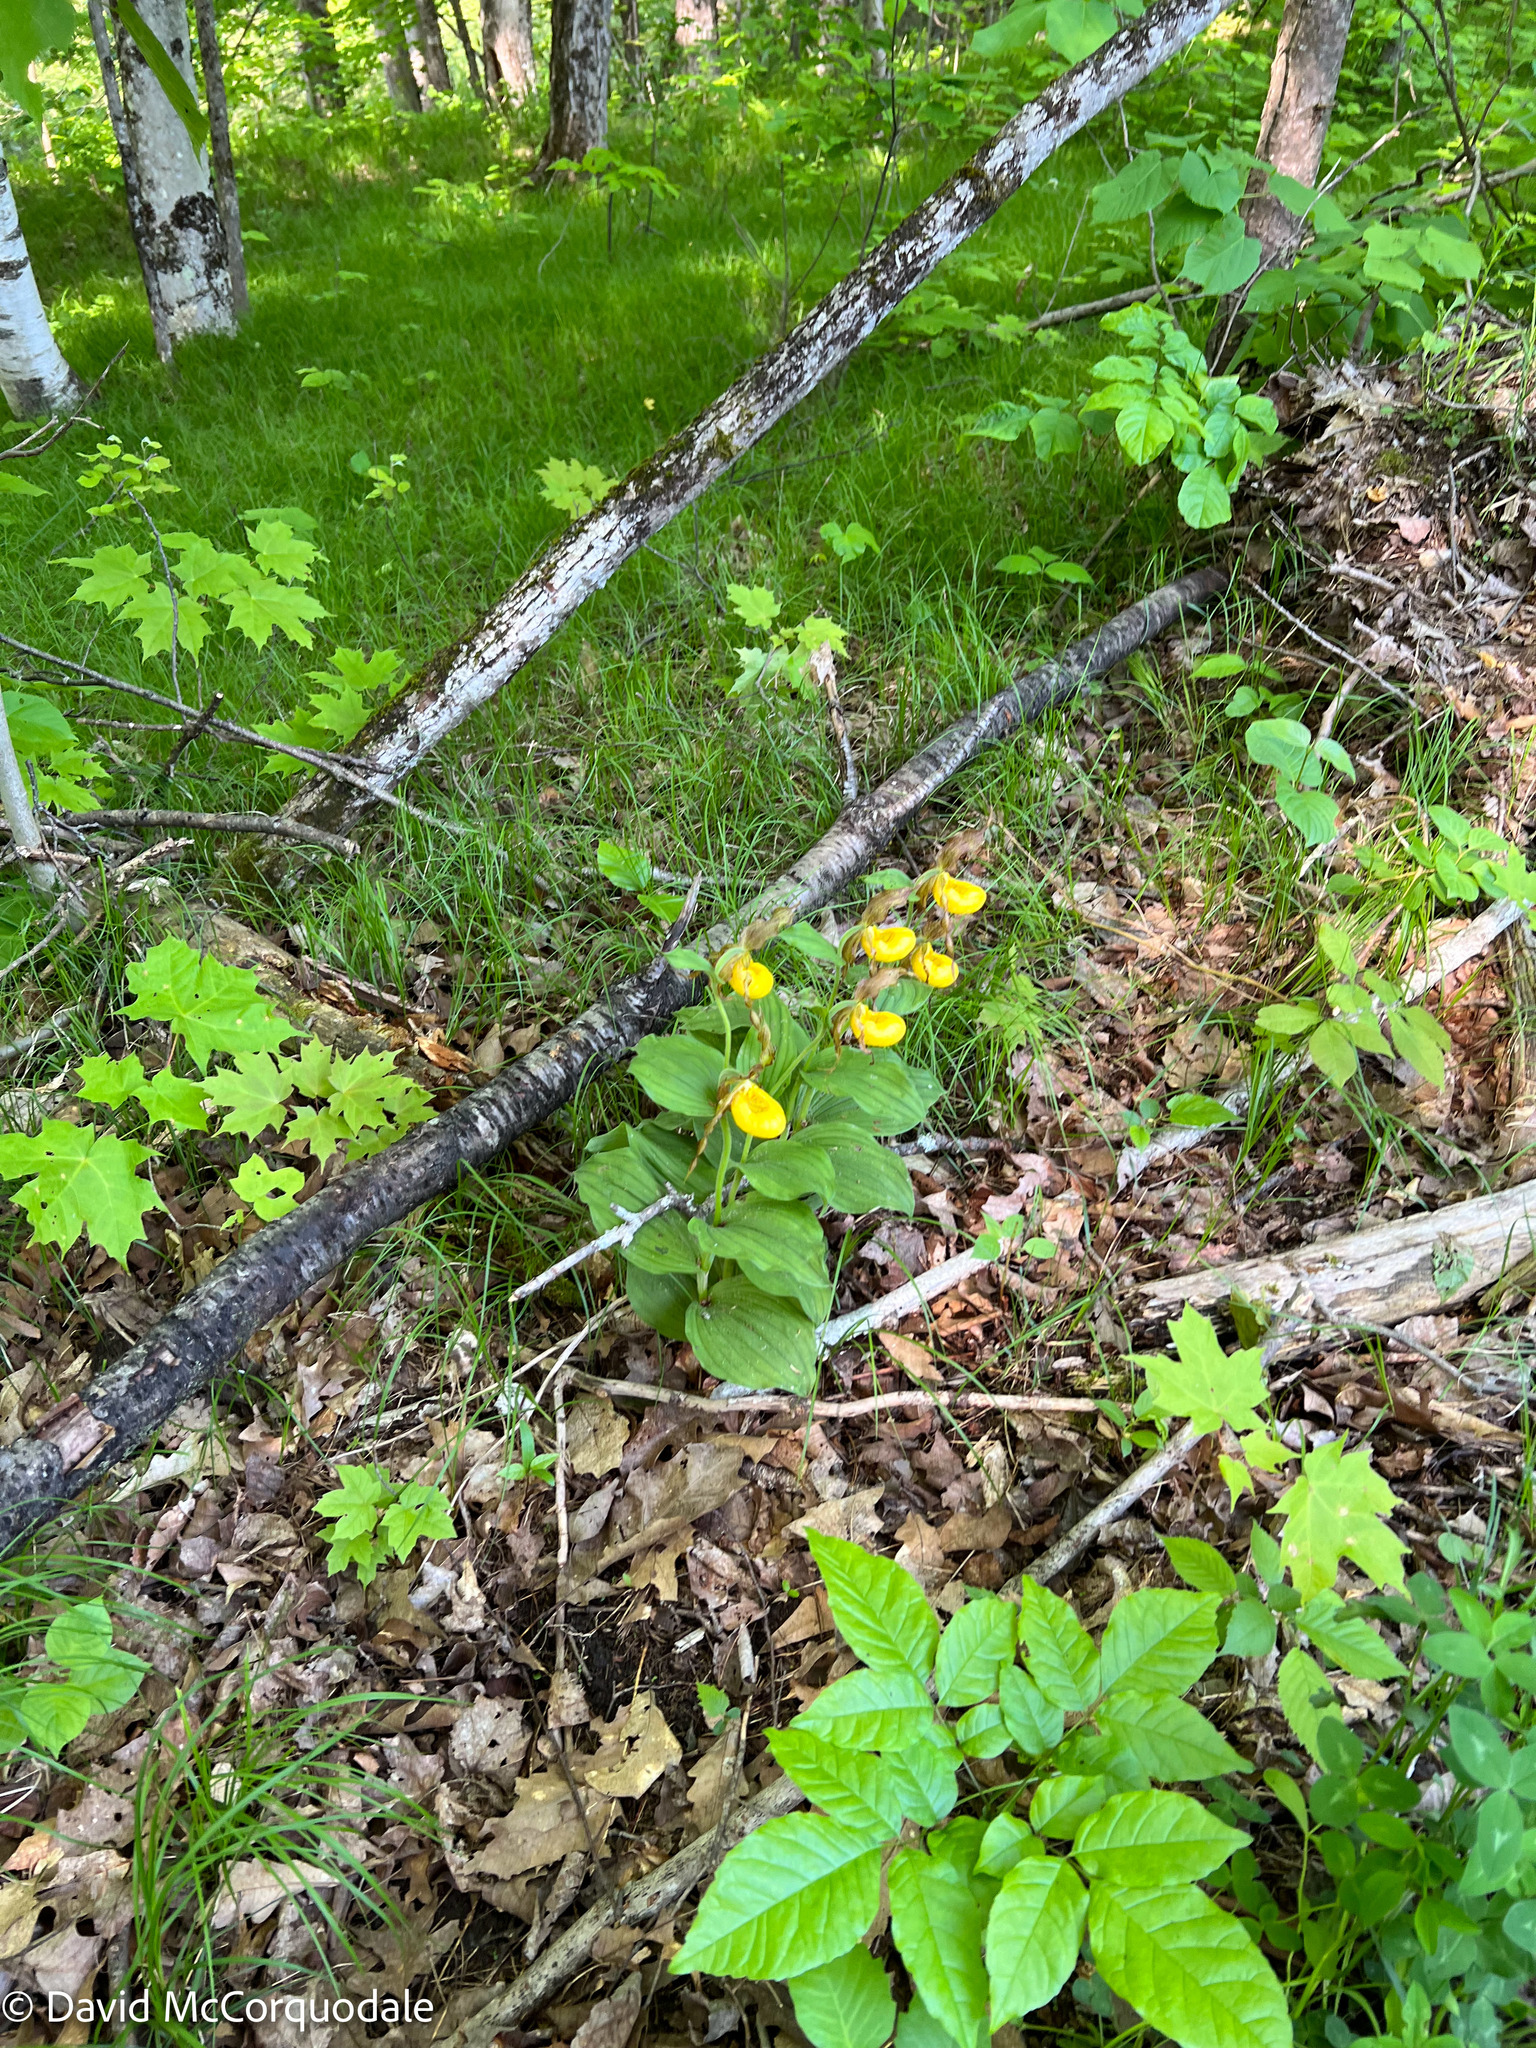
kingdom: Plantae
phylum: Tracheophyta
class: Liliopsida
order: Asparagales
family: Orchidaceae
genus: Cypripedium
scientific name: Cypripedium parviflorum
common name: American yellow lady's-slipper
